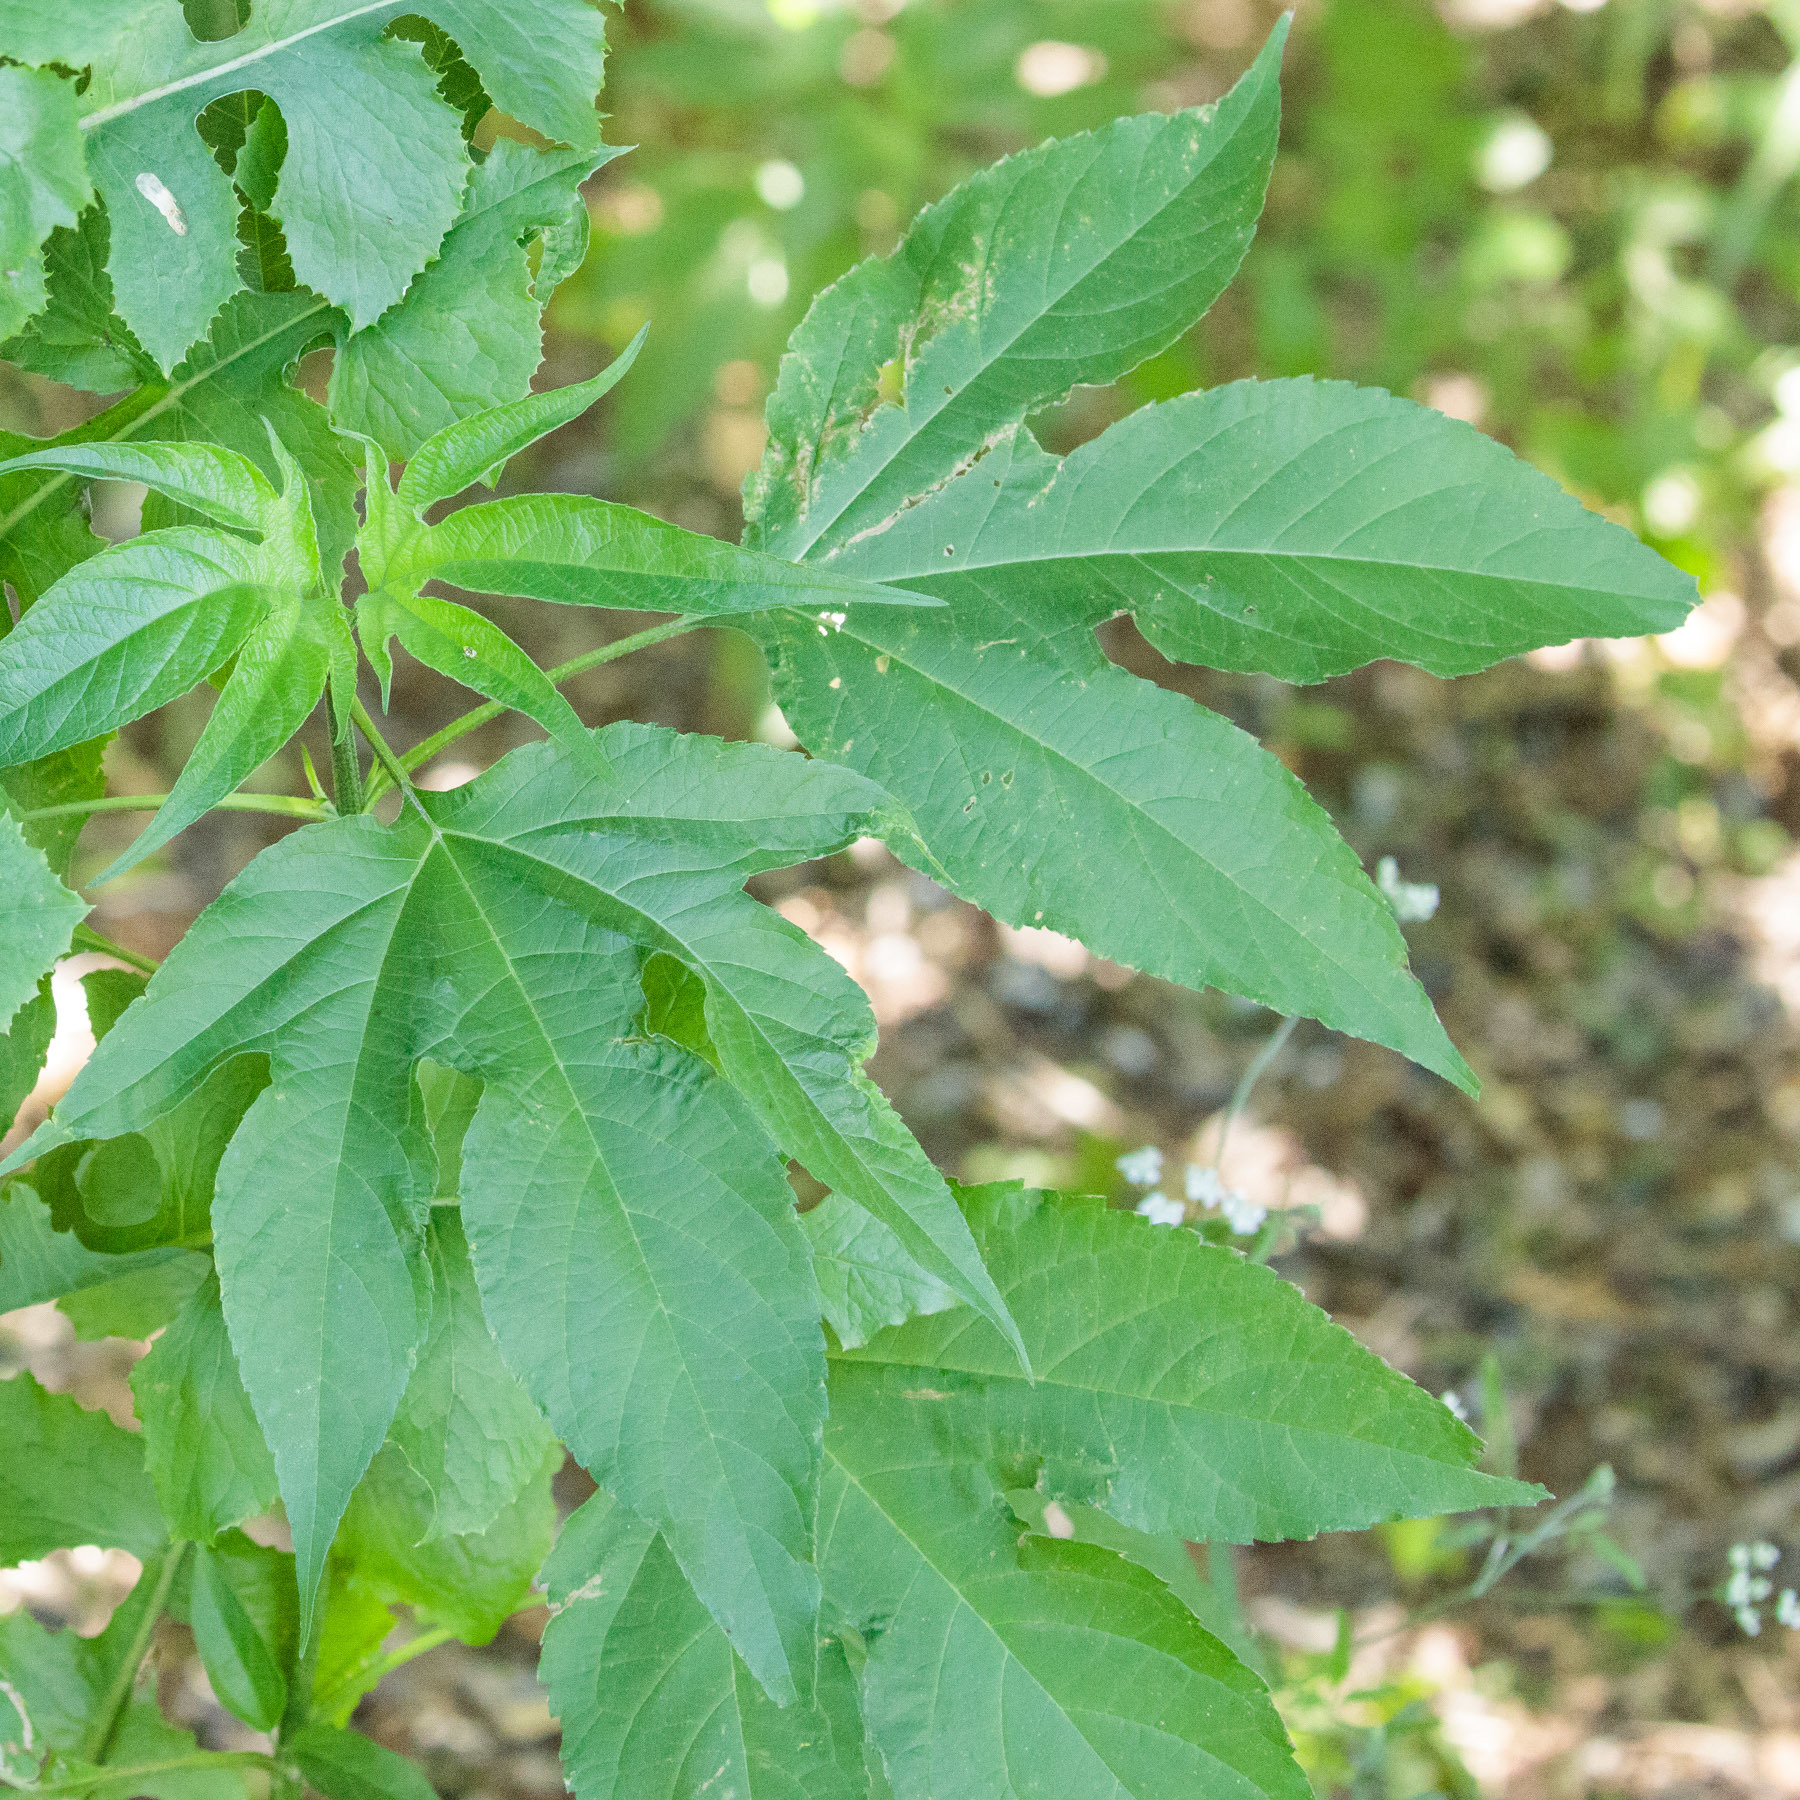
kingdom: Plantae
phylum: Tracheophyta
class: Magnoliopsida
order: Asterales
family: Asteraceae
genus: Ambrosia
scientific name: Ambrosia trifida
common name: Giant ragweed
